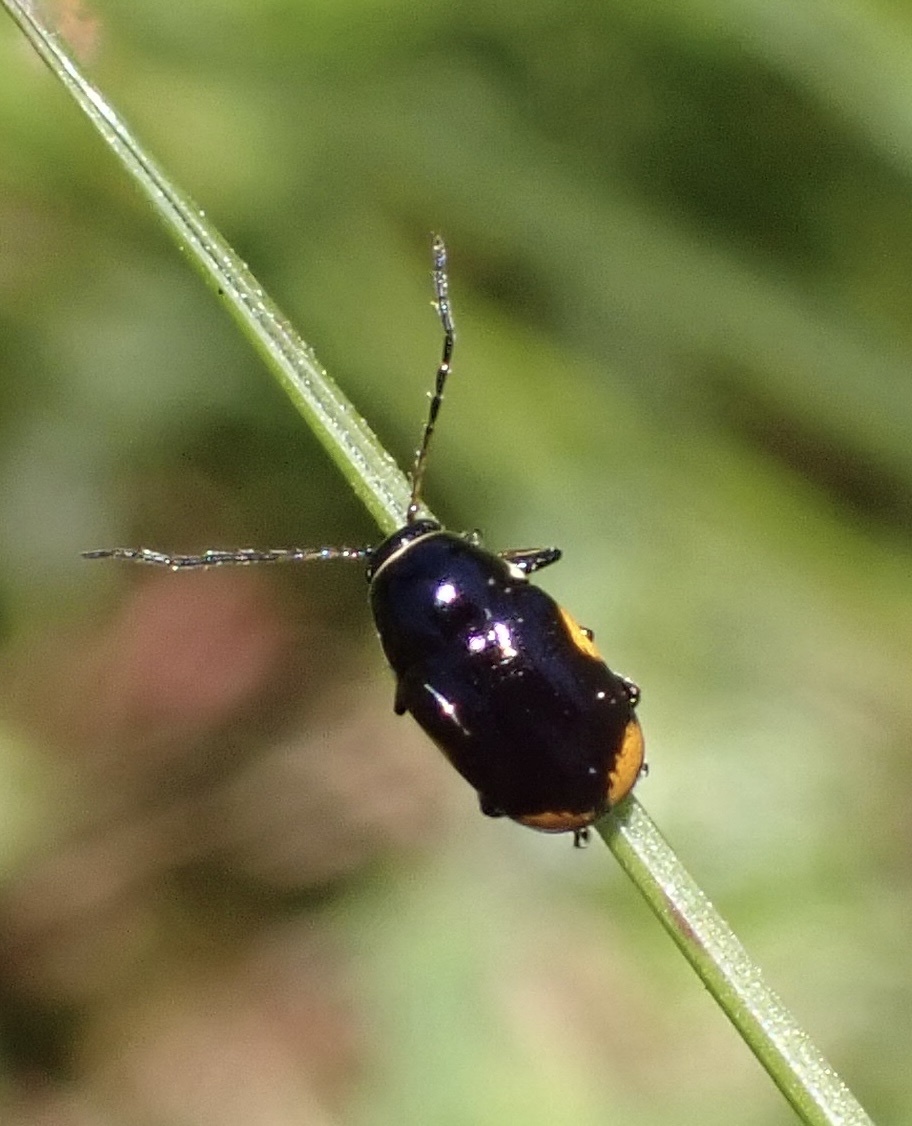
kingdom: Animalia
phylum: Arthropoda
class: Insecta
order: Coleoptera
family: Chrysomelidae
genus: Cryptocephalus
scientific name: Cryptocephalus moraei
